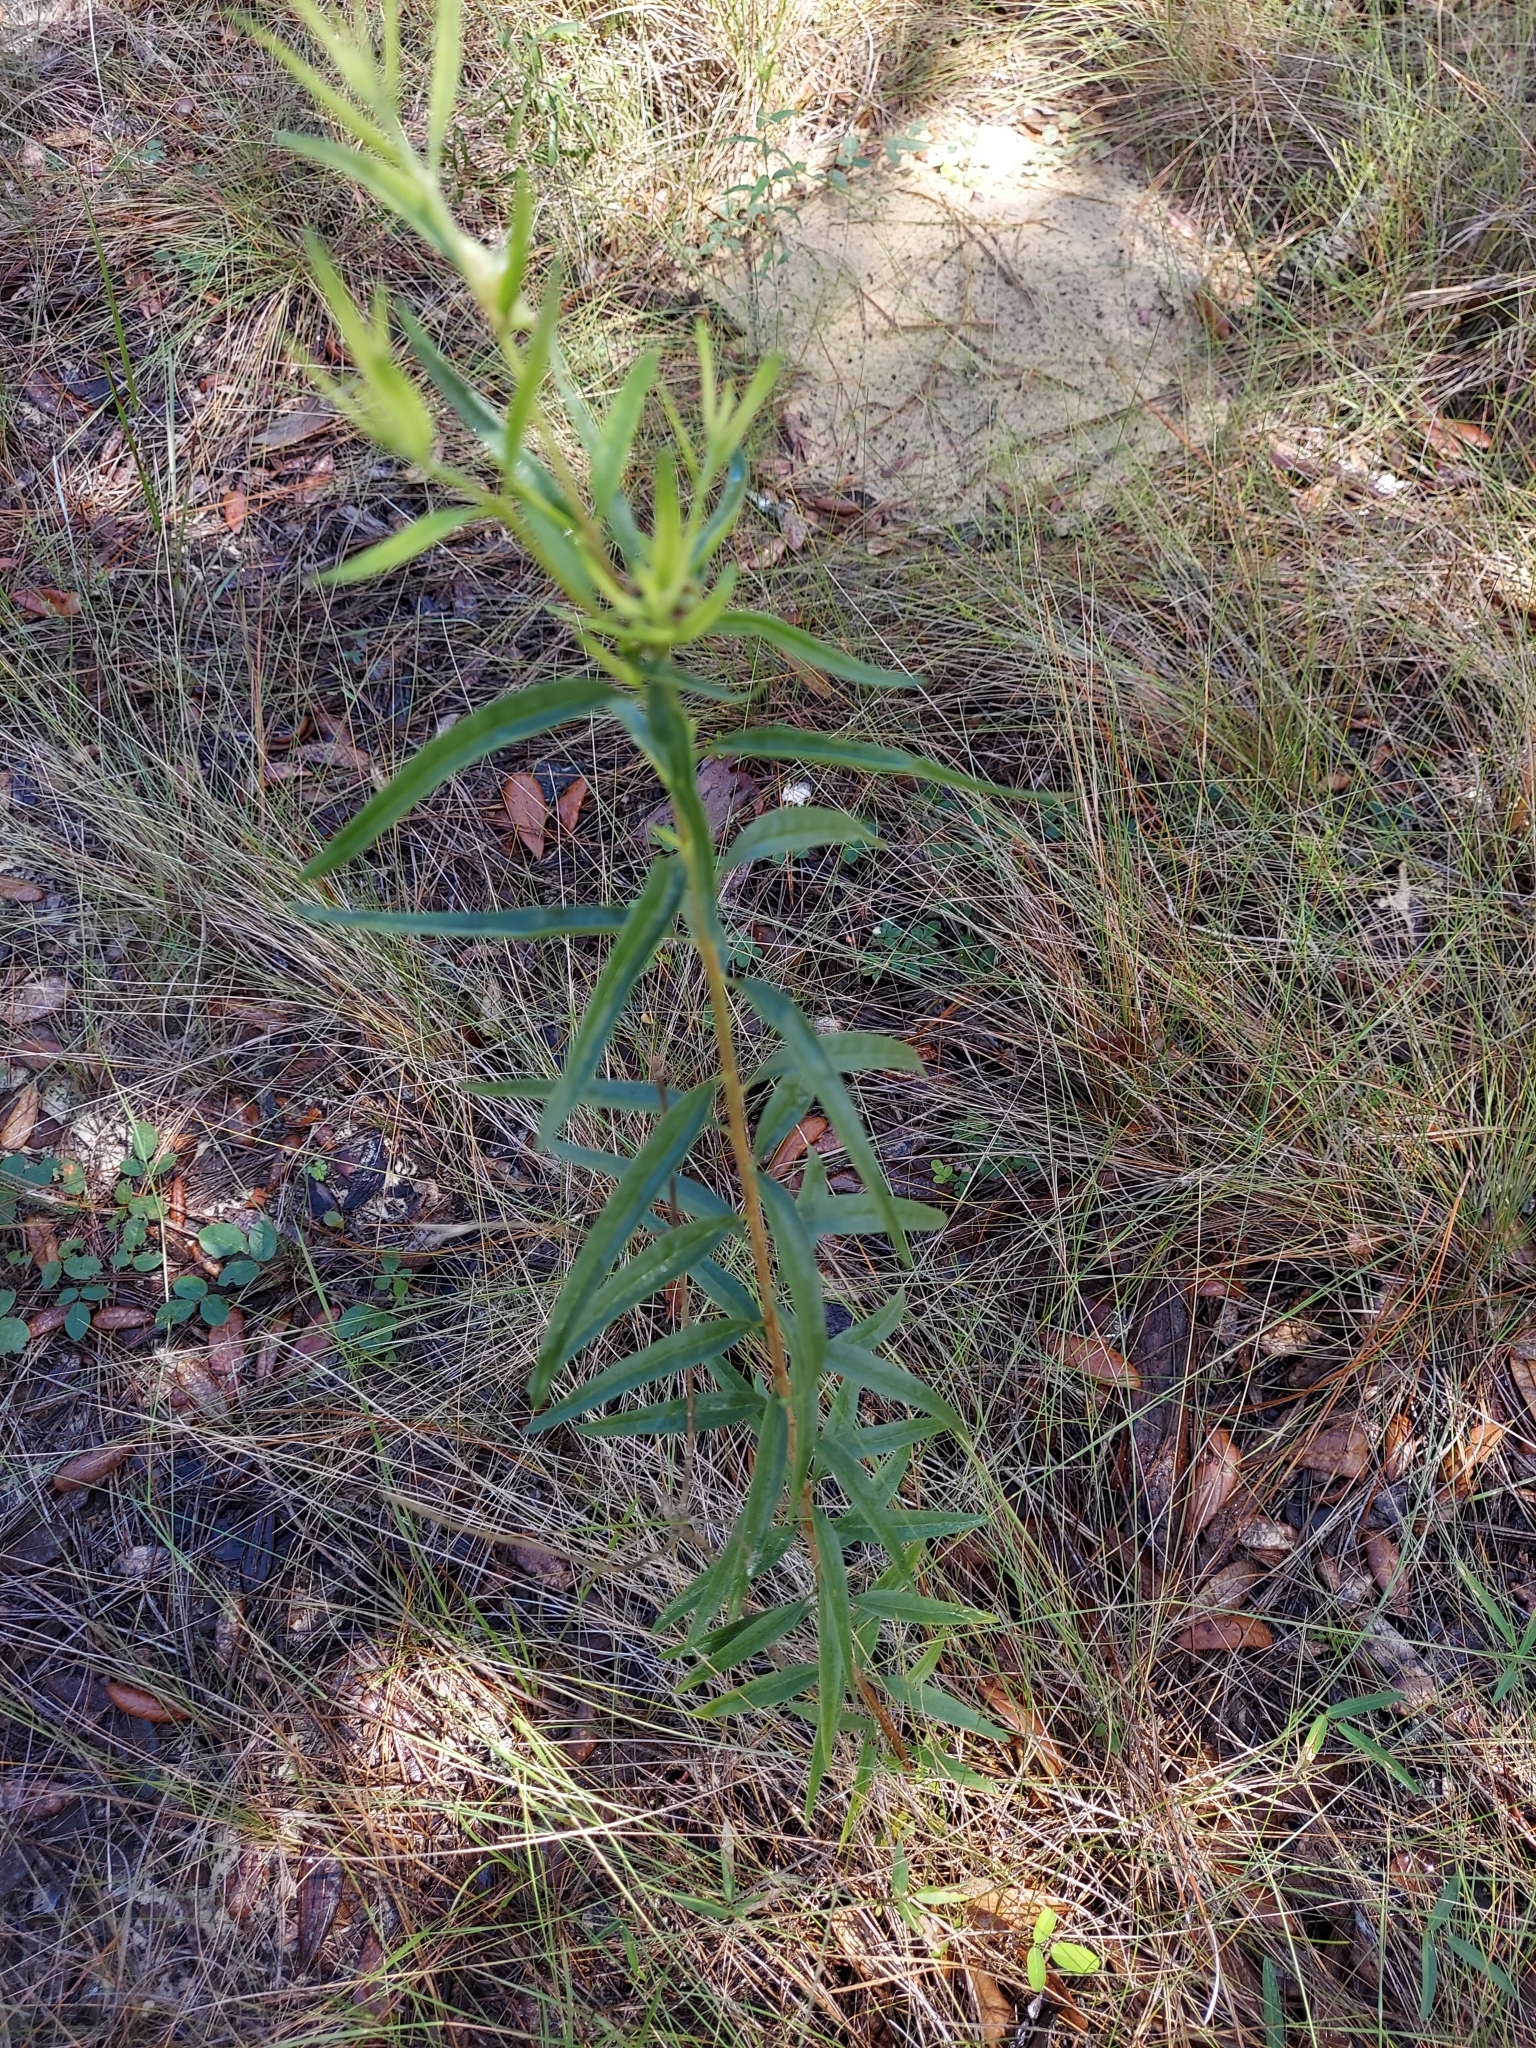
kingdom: Plantae
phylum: Tracheophyta
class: Magnoliopsida
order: Asterales
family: Asteraceae
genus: Palafoxia
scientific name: Palafoxia integrifolia
